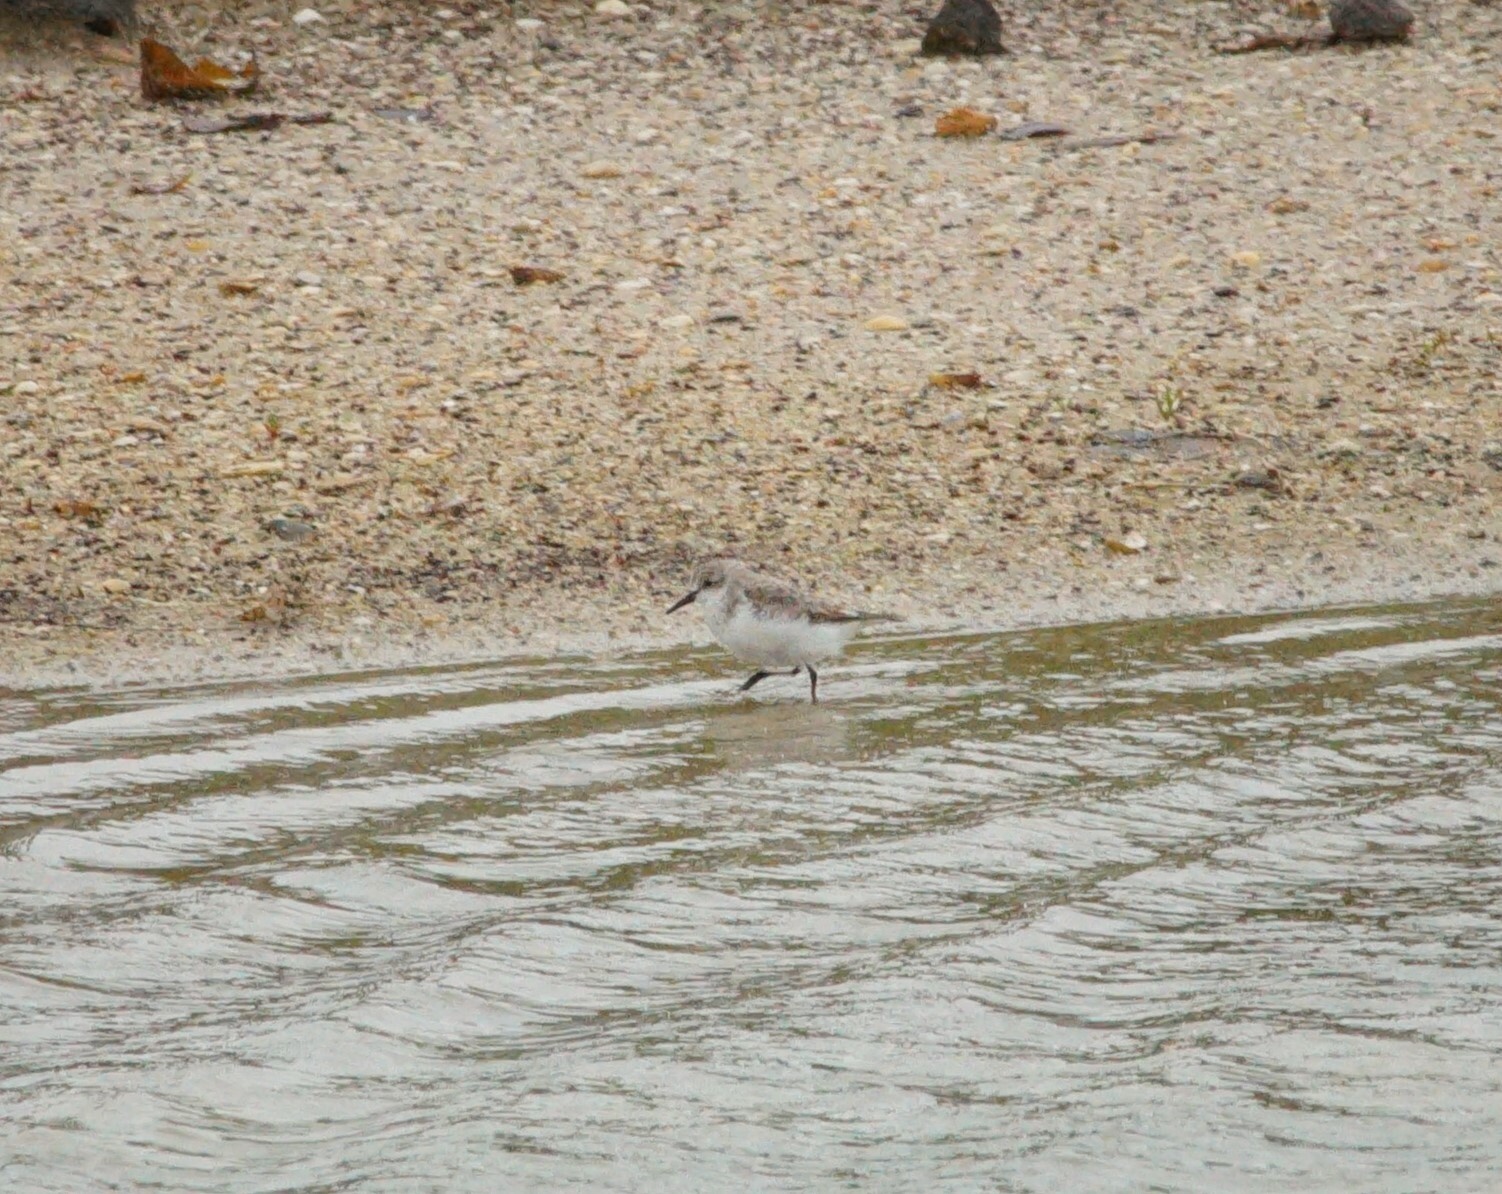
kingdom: Animalia
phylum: Chordata
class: Aves
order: Charadriiformes
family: Scolopacidae
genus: Calidris
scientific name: Calidris ruficollis
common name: Red-necked stint
